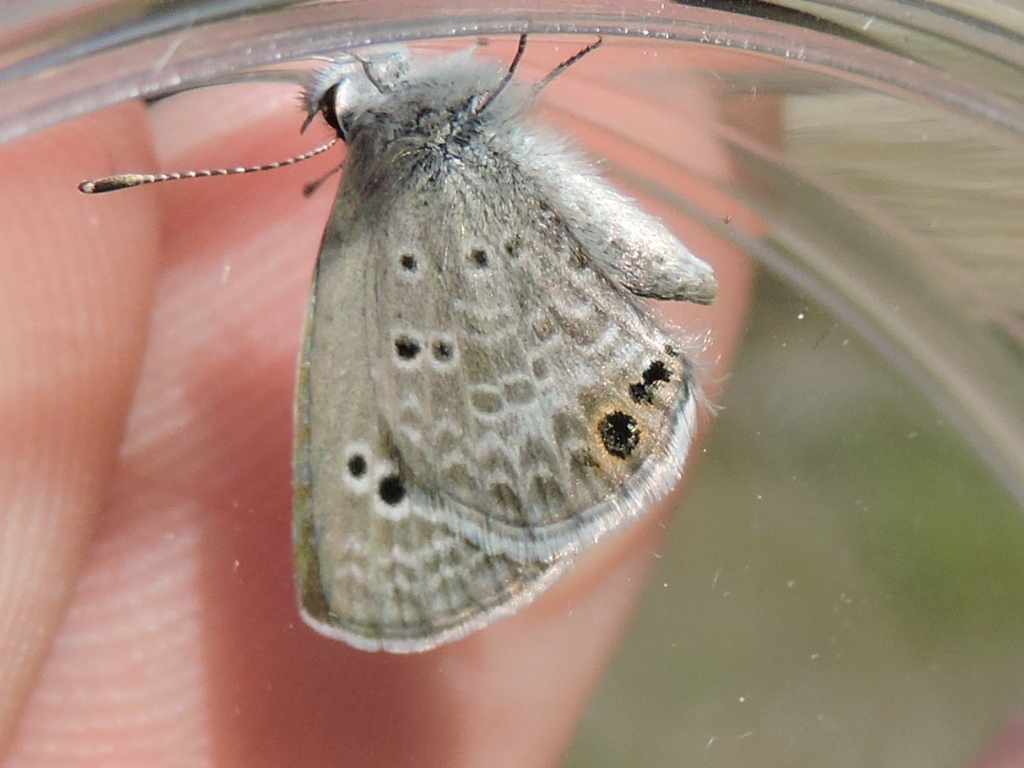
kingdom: Animalia
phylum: Arthropoda
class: Insecta
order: Lepidoptera
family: Lycaenidae
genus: Echinargus
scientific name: Echinargus isola
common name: Reakirt's blue
